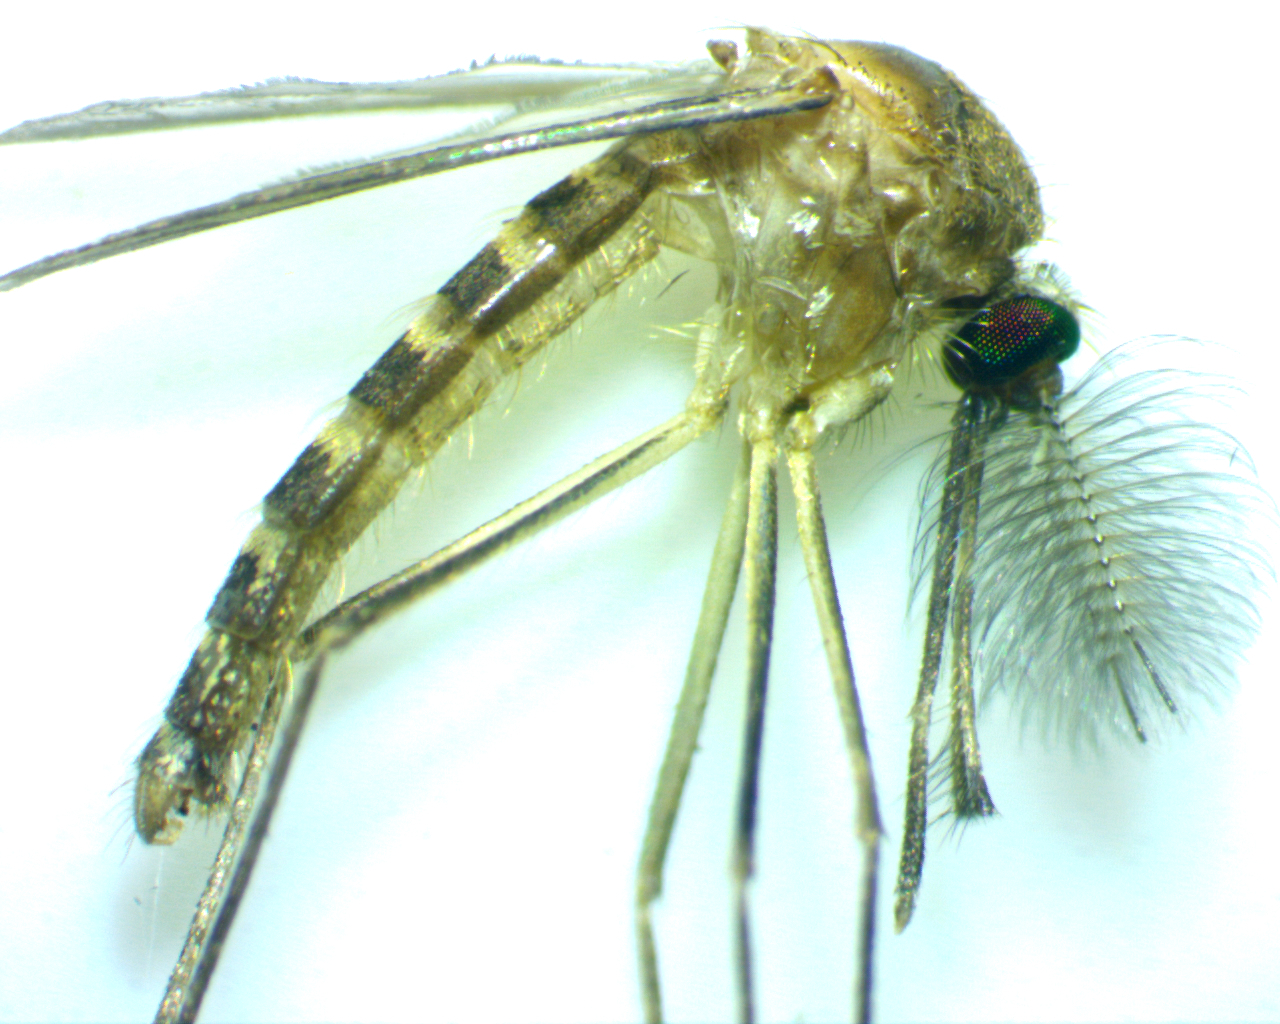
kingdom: Animalia
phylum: Arthropoda
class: Insecta
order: Diptera
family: Culicidae
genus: Culex
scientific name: Culex quinquefasciatus
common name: Southern house mosquito
